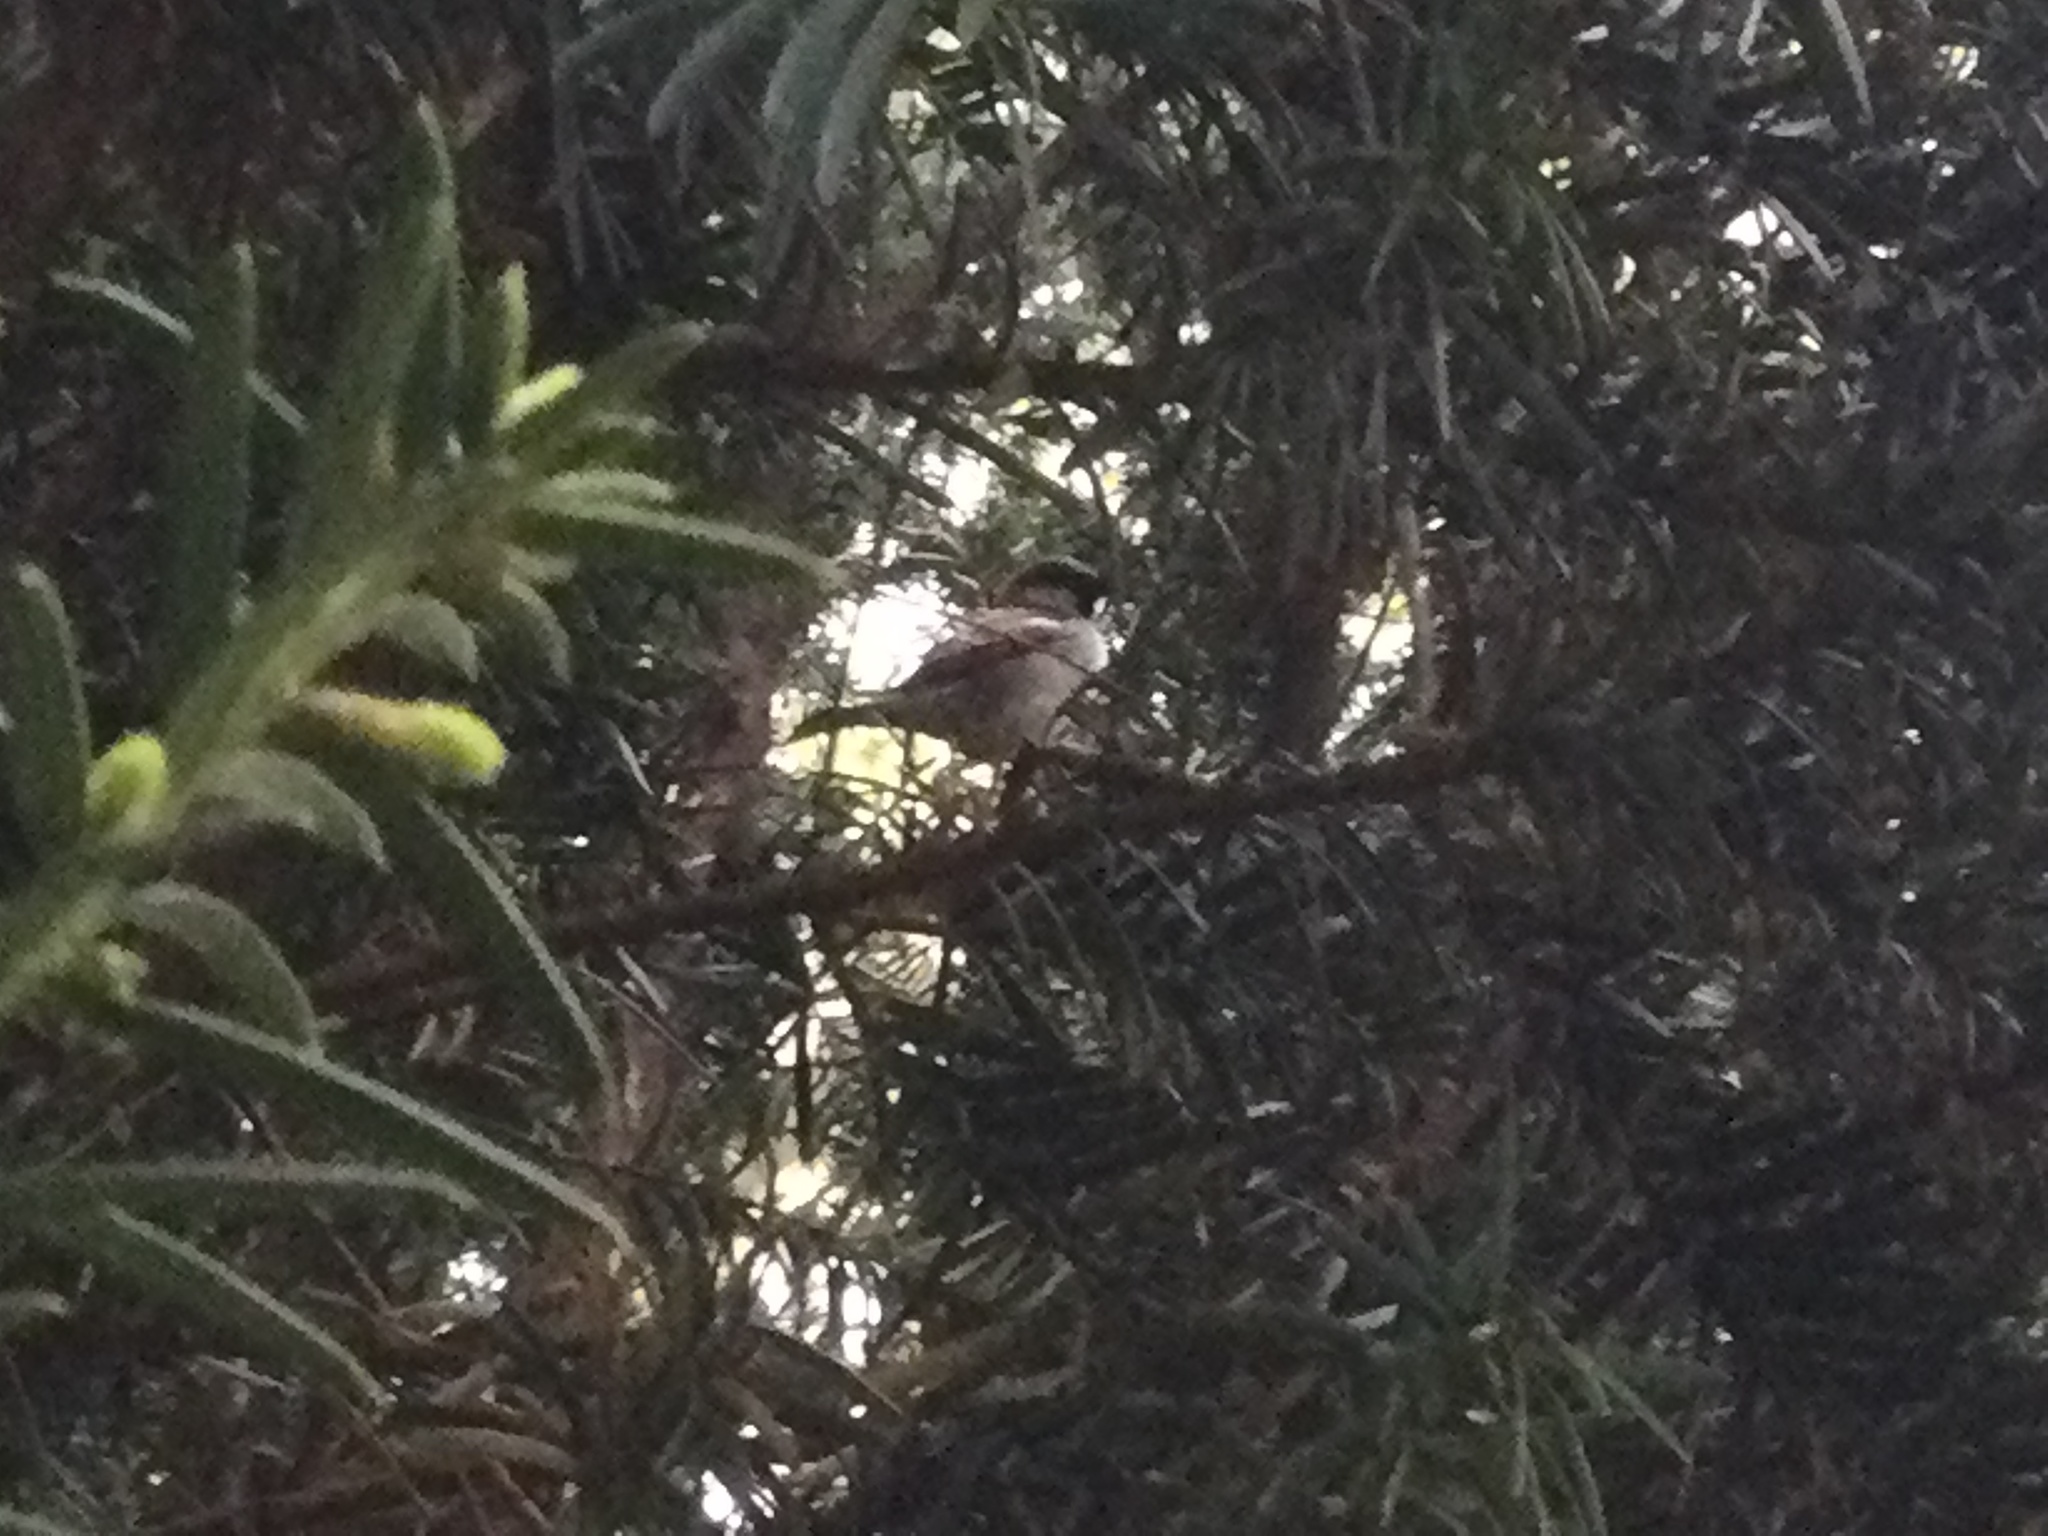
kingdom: Animalia
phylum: Chordata
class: Aves
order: Passeriformes
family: Passeridae
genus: Passer
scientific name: Passer domesticus
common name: House sparrow
